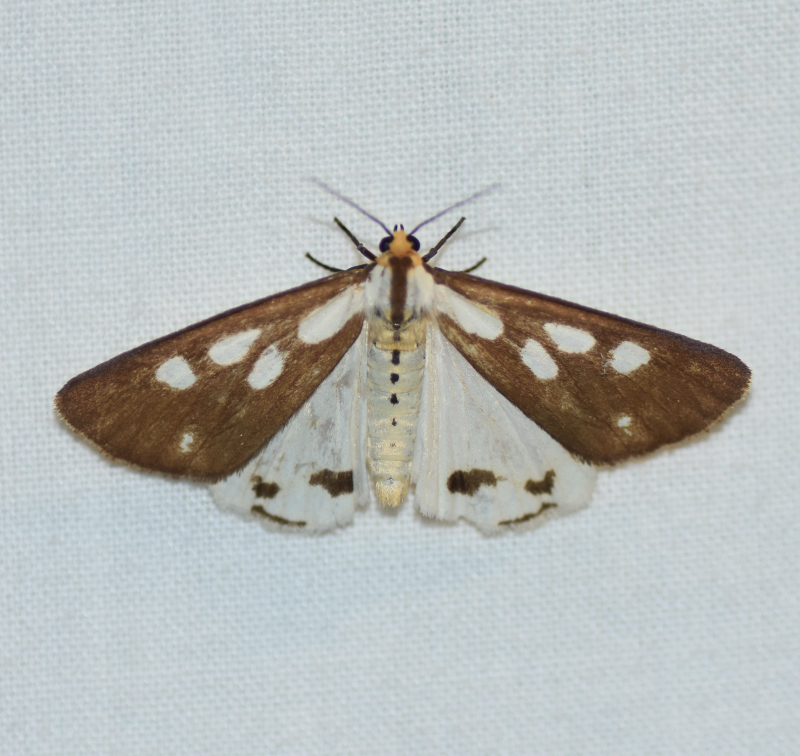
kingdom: Animalia
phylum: Arthropoda
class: Insecta
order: Lepidoptera
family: Erebidae
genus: Haploa
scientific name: Haploa confusa
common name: Confused haploa moth
